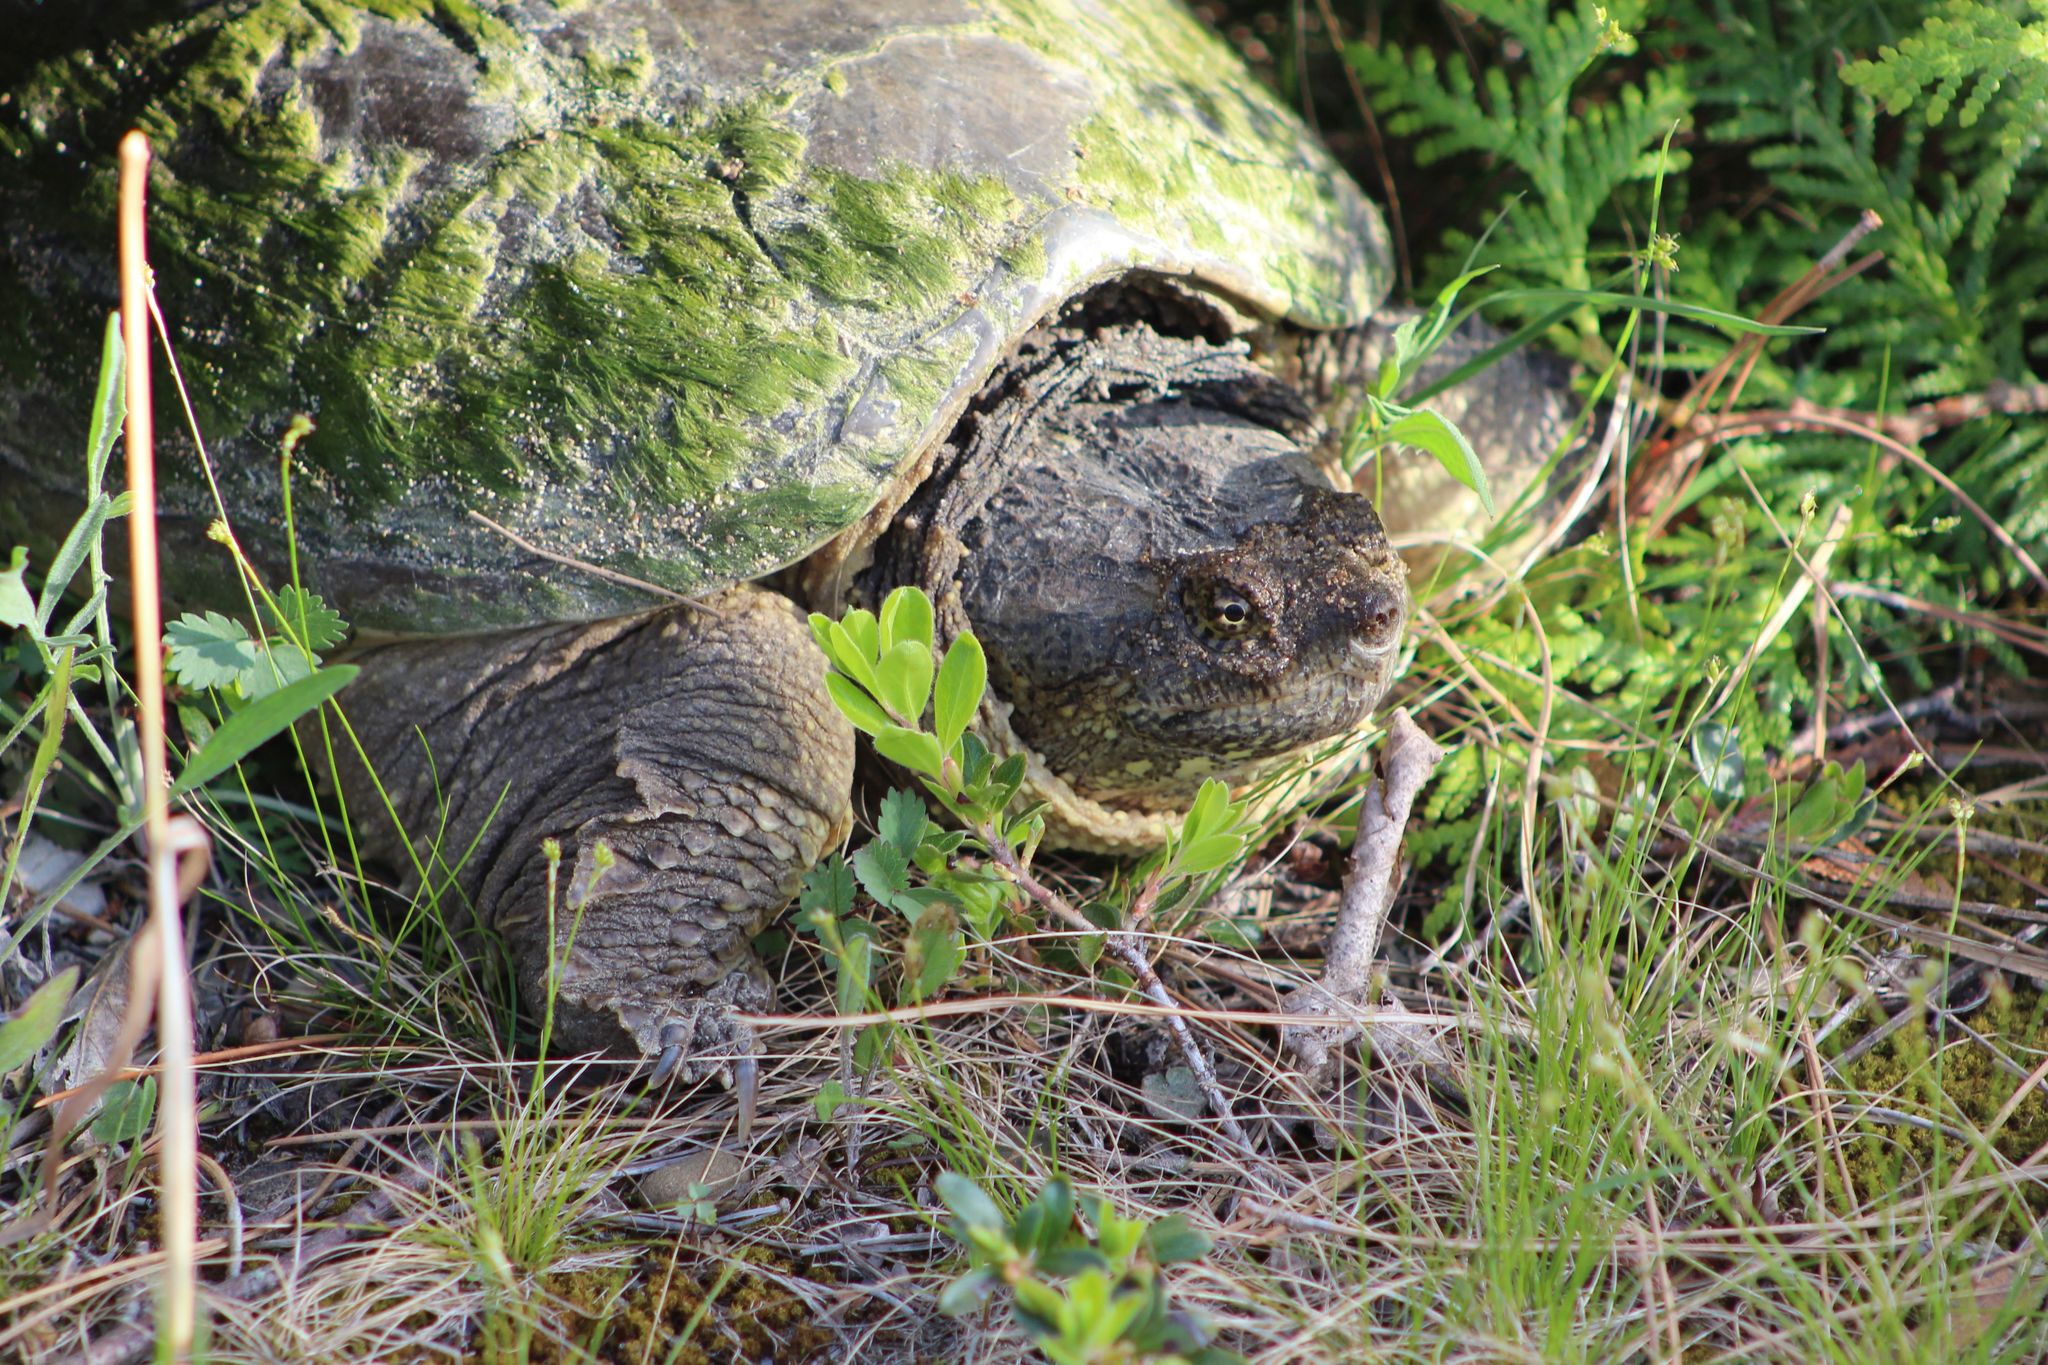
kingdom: Animalia
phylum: Chordata
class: Testudines
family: Chelydridae
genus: Chelydra
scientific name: Chelydra serpentina
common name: Common snapping turtle
